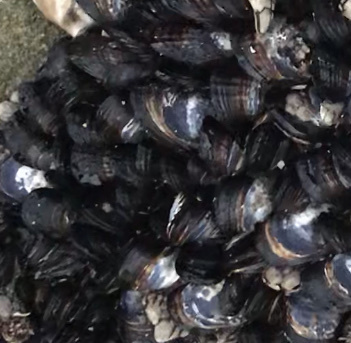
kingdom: Animalia
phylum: Mollusca
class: Bivalvia
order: Mytilida
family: Mytilidae
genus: Mytilus
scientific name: Mytilus californianus
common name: California mussel
